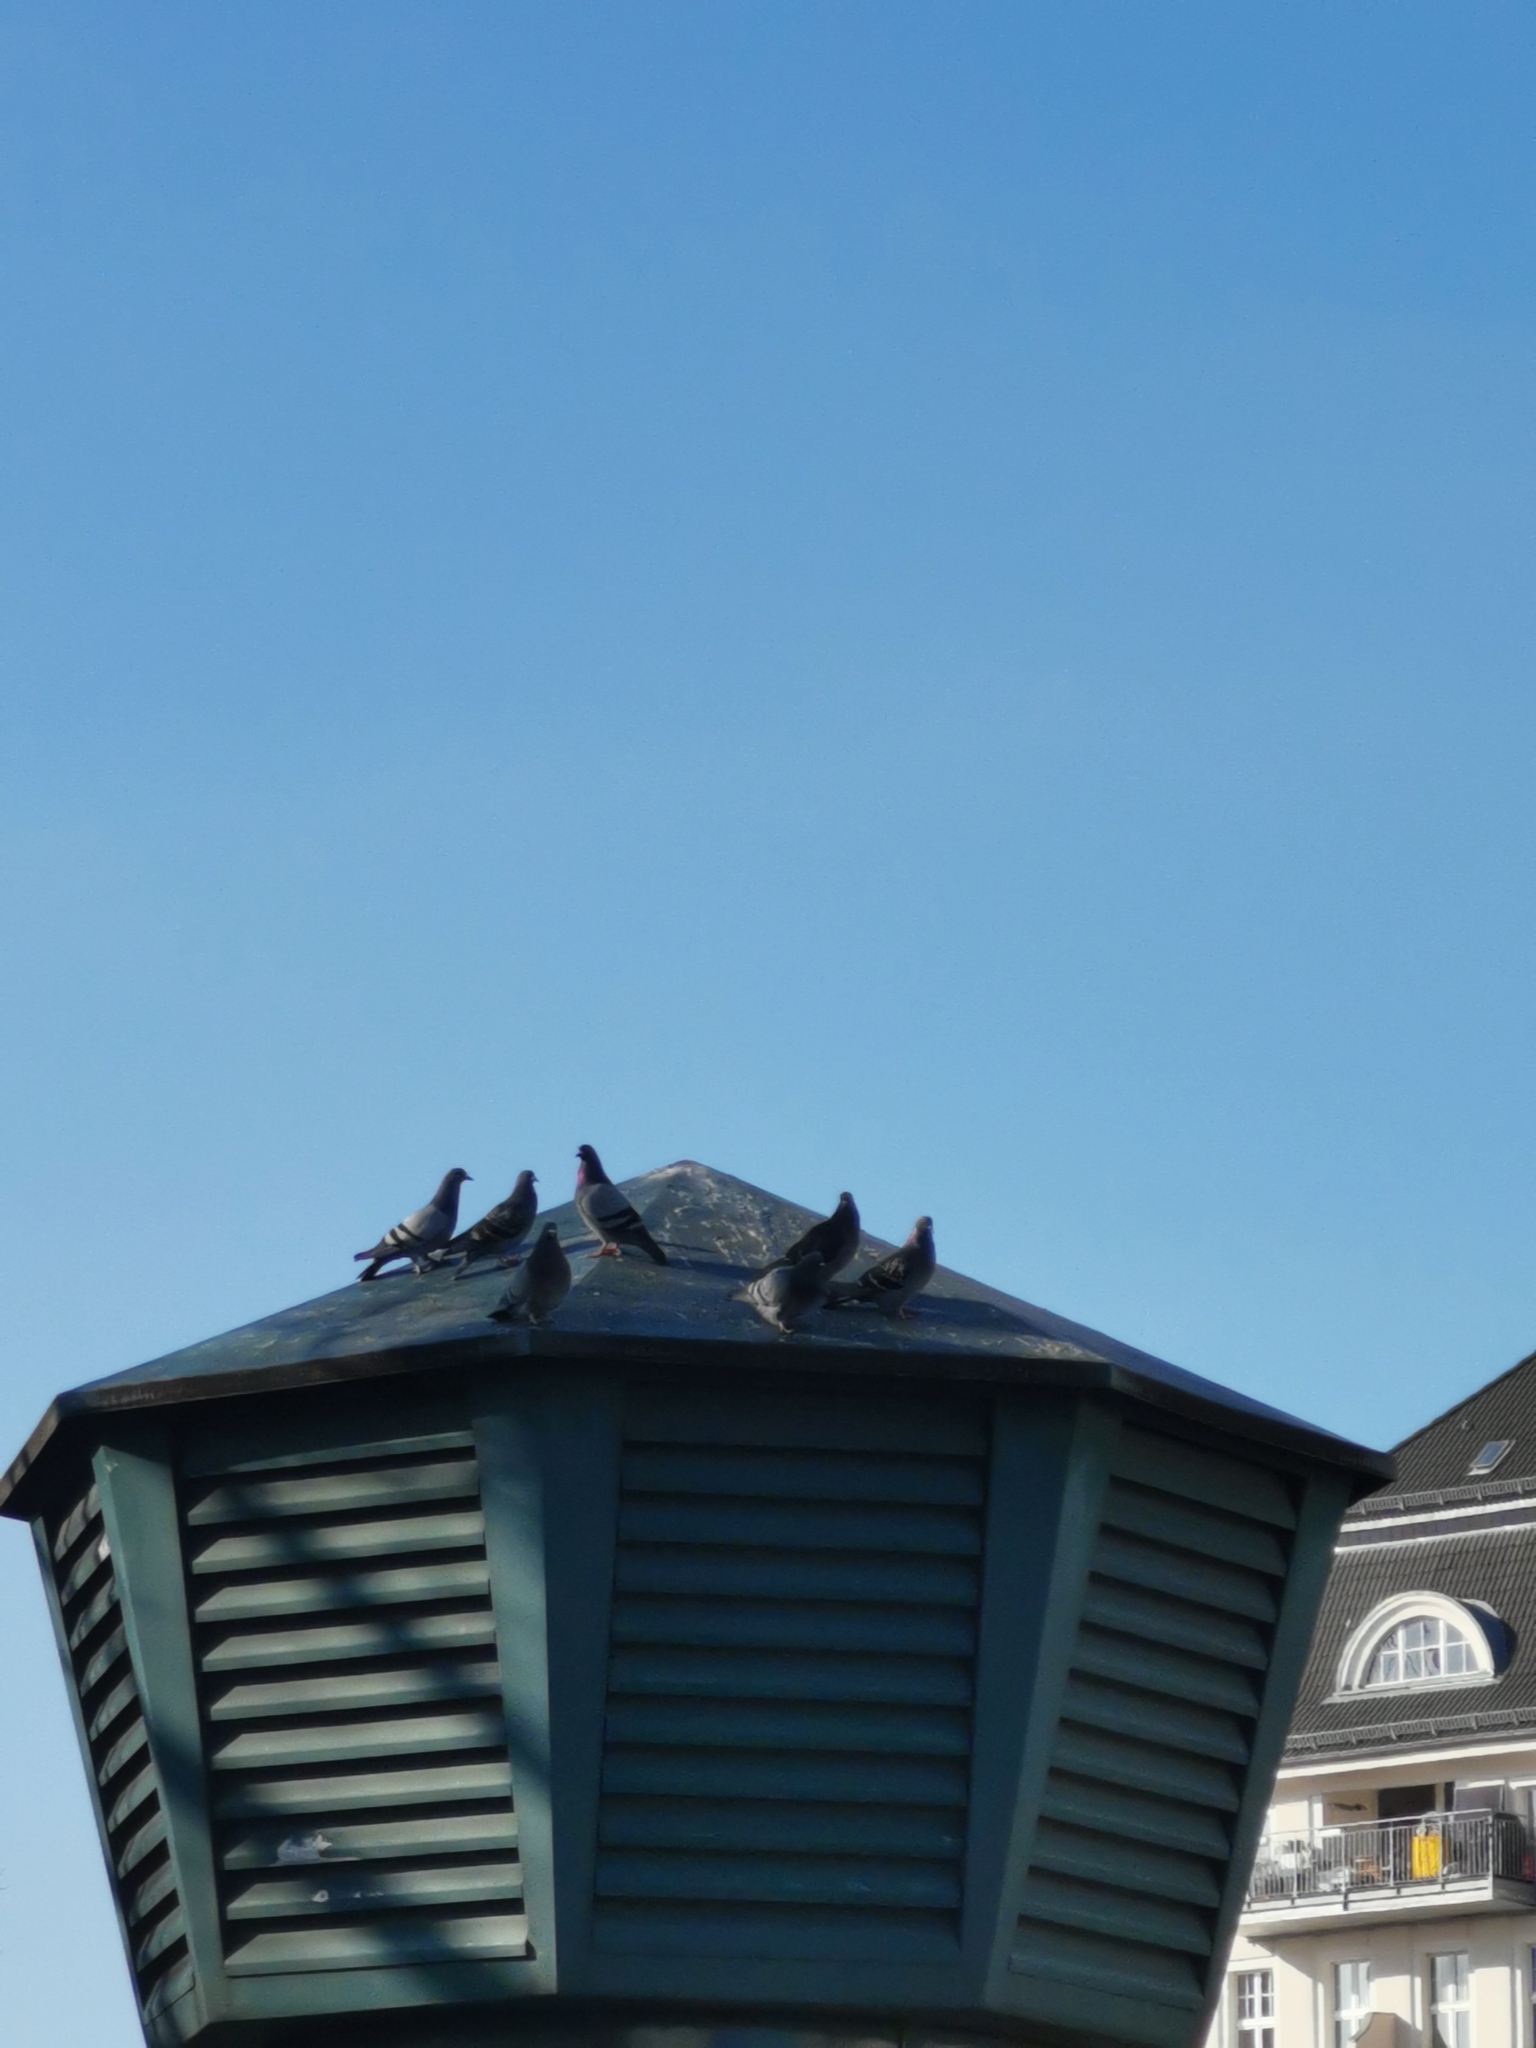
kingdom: Animalia
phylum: Chordata
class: Aves
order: Columbiformes
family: Columbidae
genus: Columba
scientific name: Columba livia
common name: Rock pigeon
